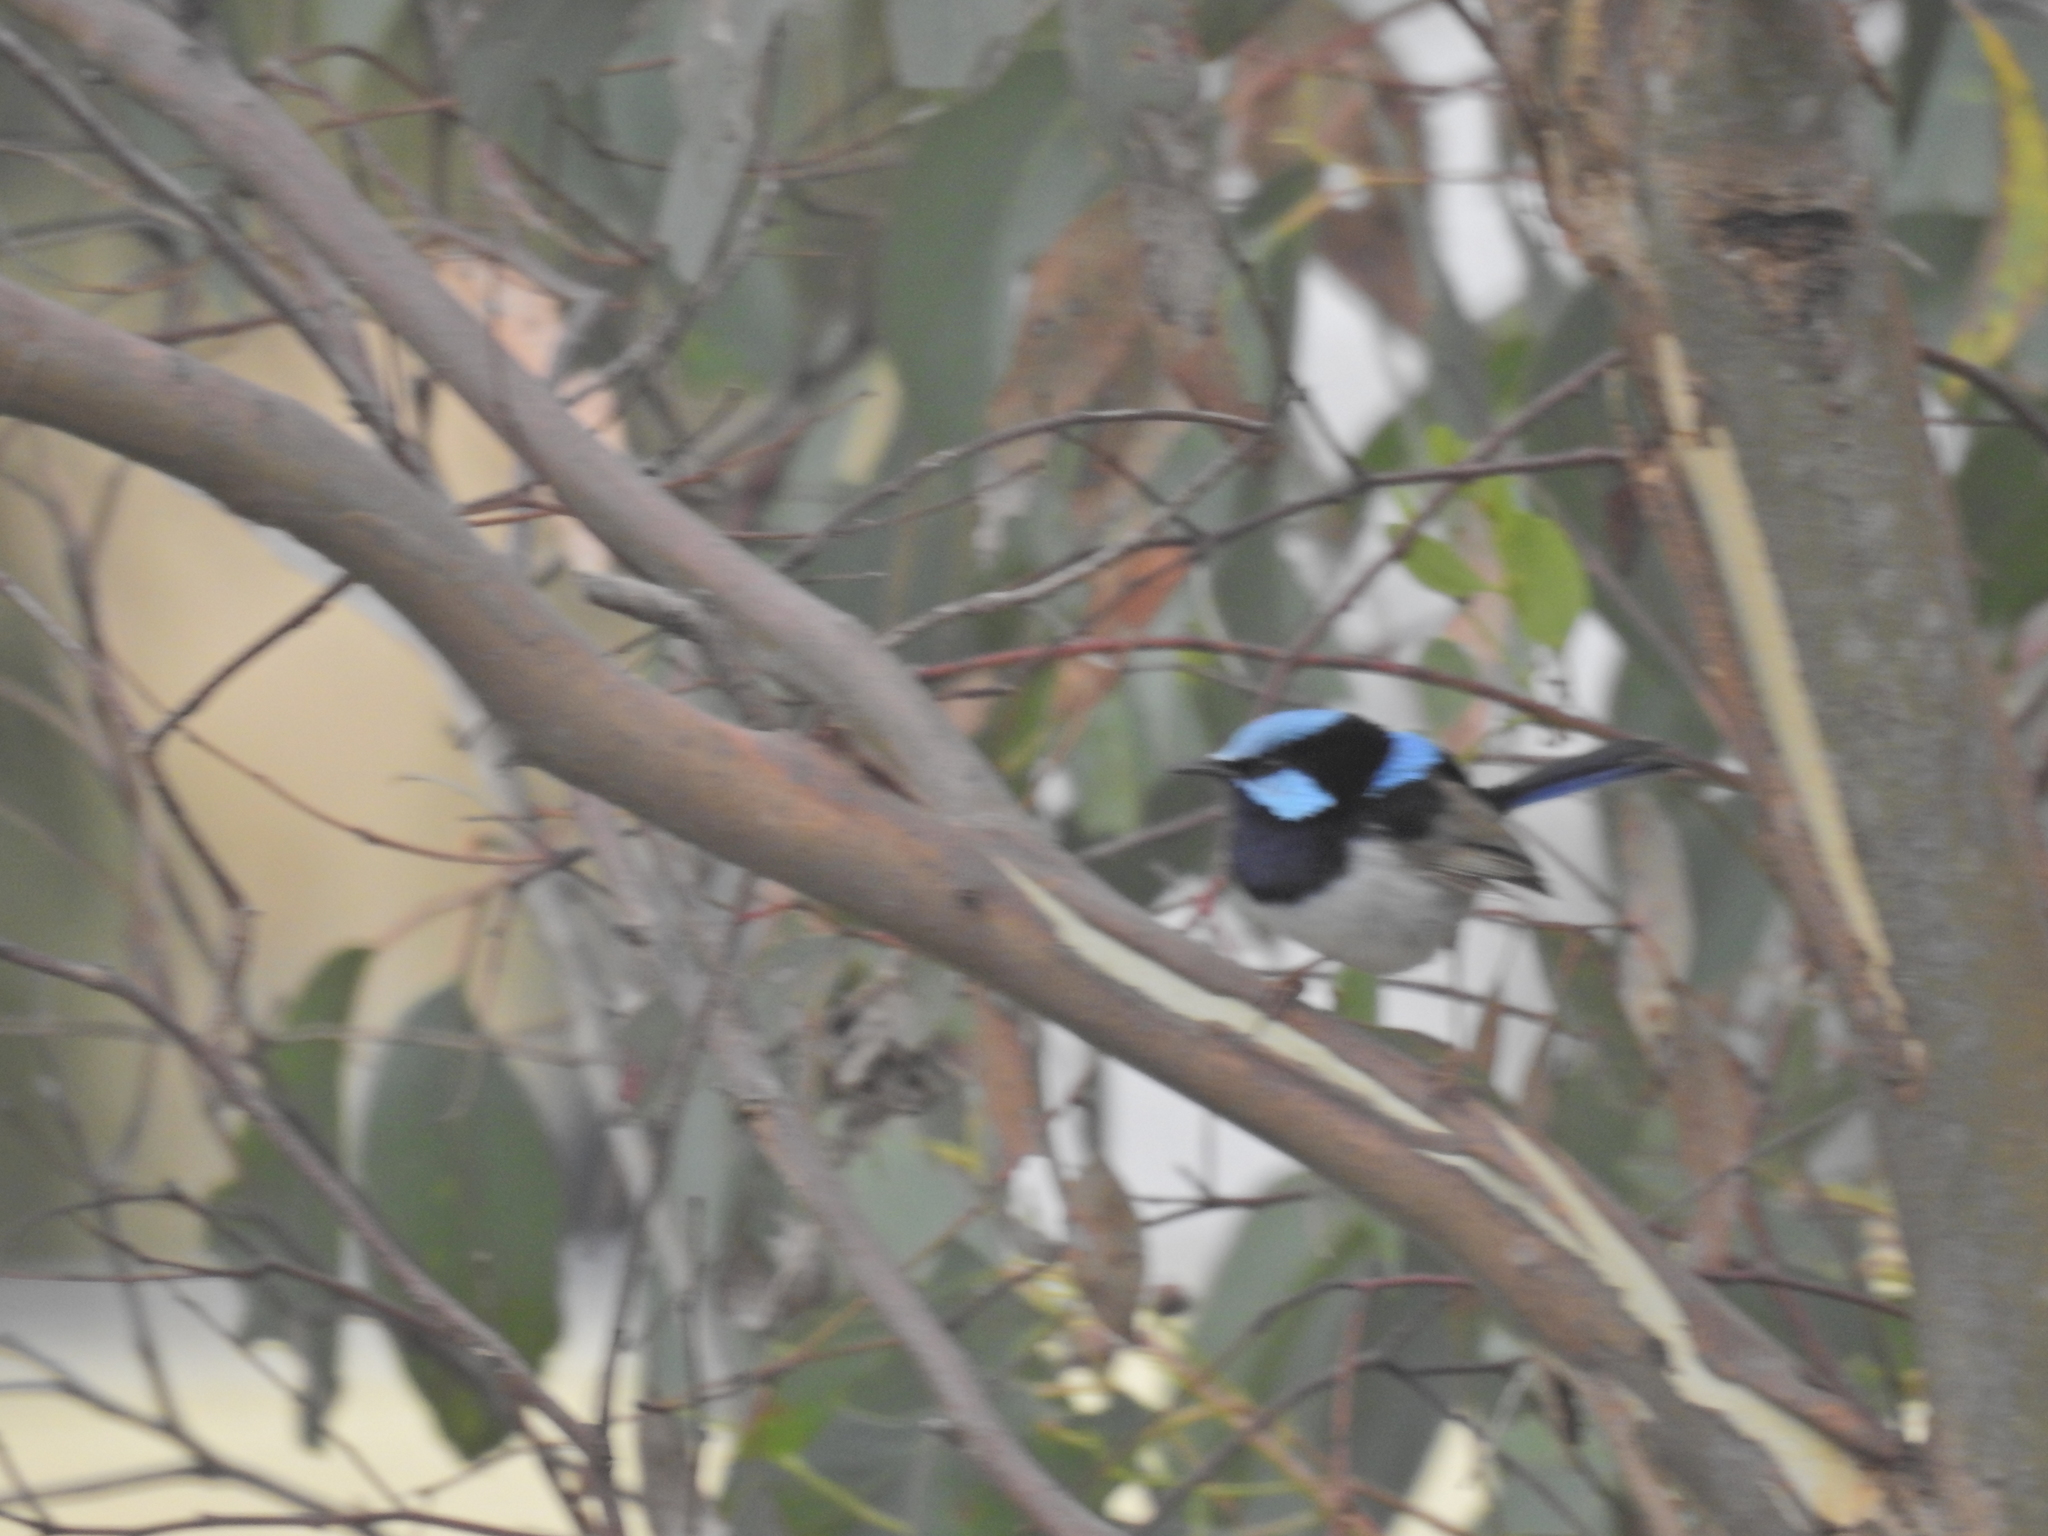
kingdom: Animalia
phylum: Chordata
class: Aves
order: Passeriformes
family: Maluridae
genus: Malurus
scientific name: Malurus cyaneus
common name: Superb fairywren
